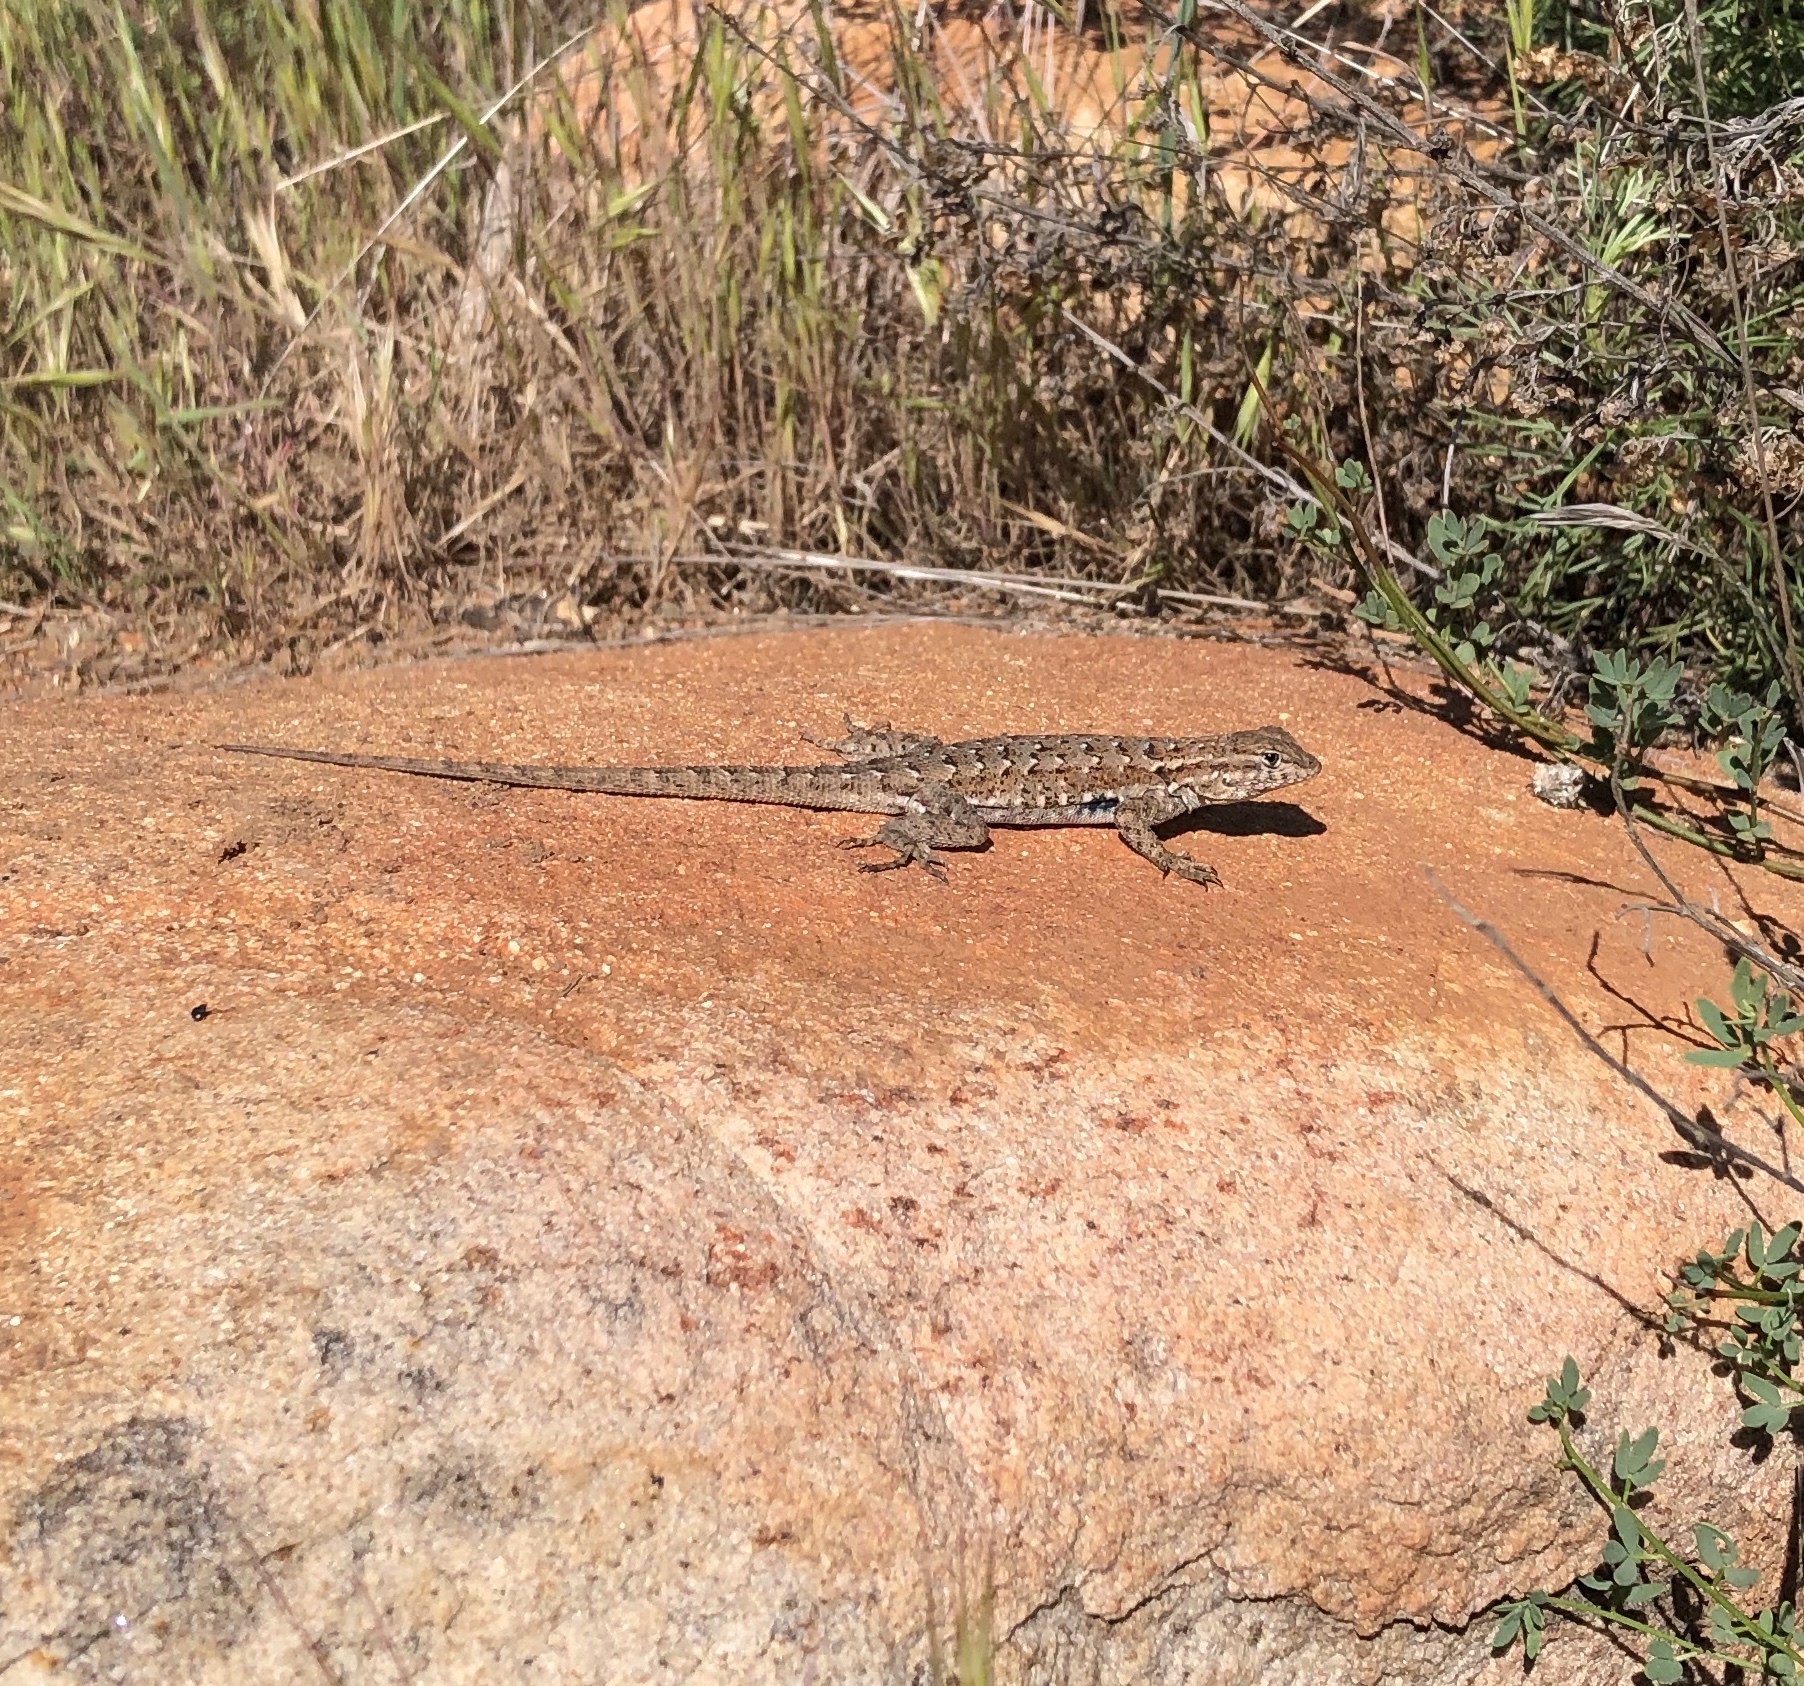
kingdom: Animalia
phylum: Chordata
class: Squamata
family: Phrynosomatidae
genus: Uta
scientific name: Uta stansburiana
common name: Side-blotched lizard
